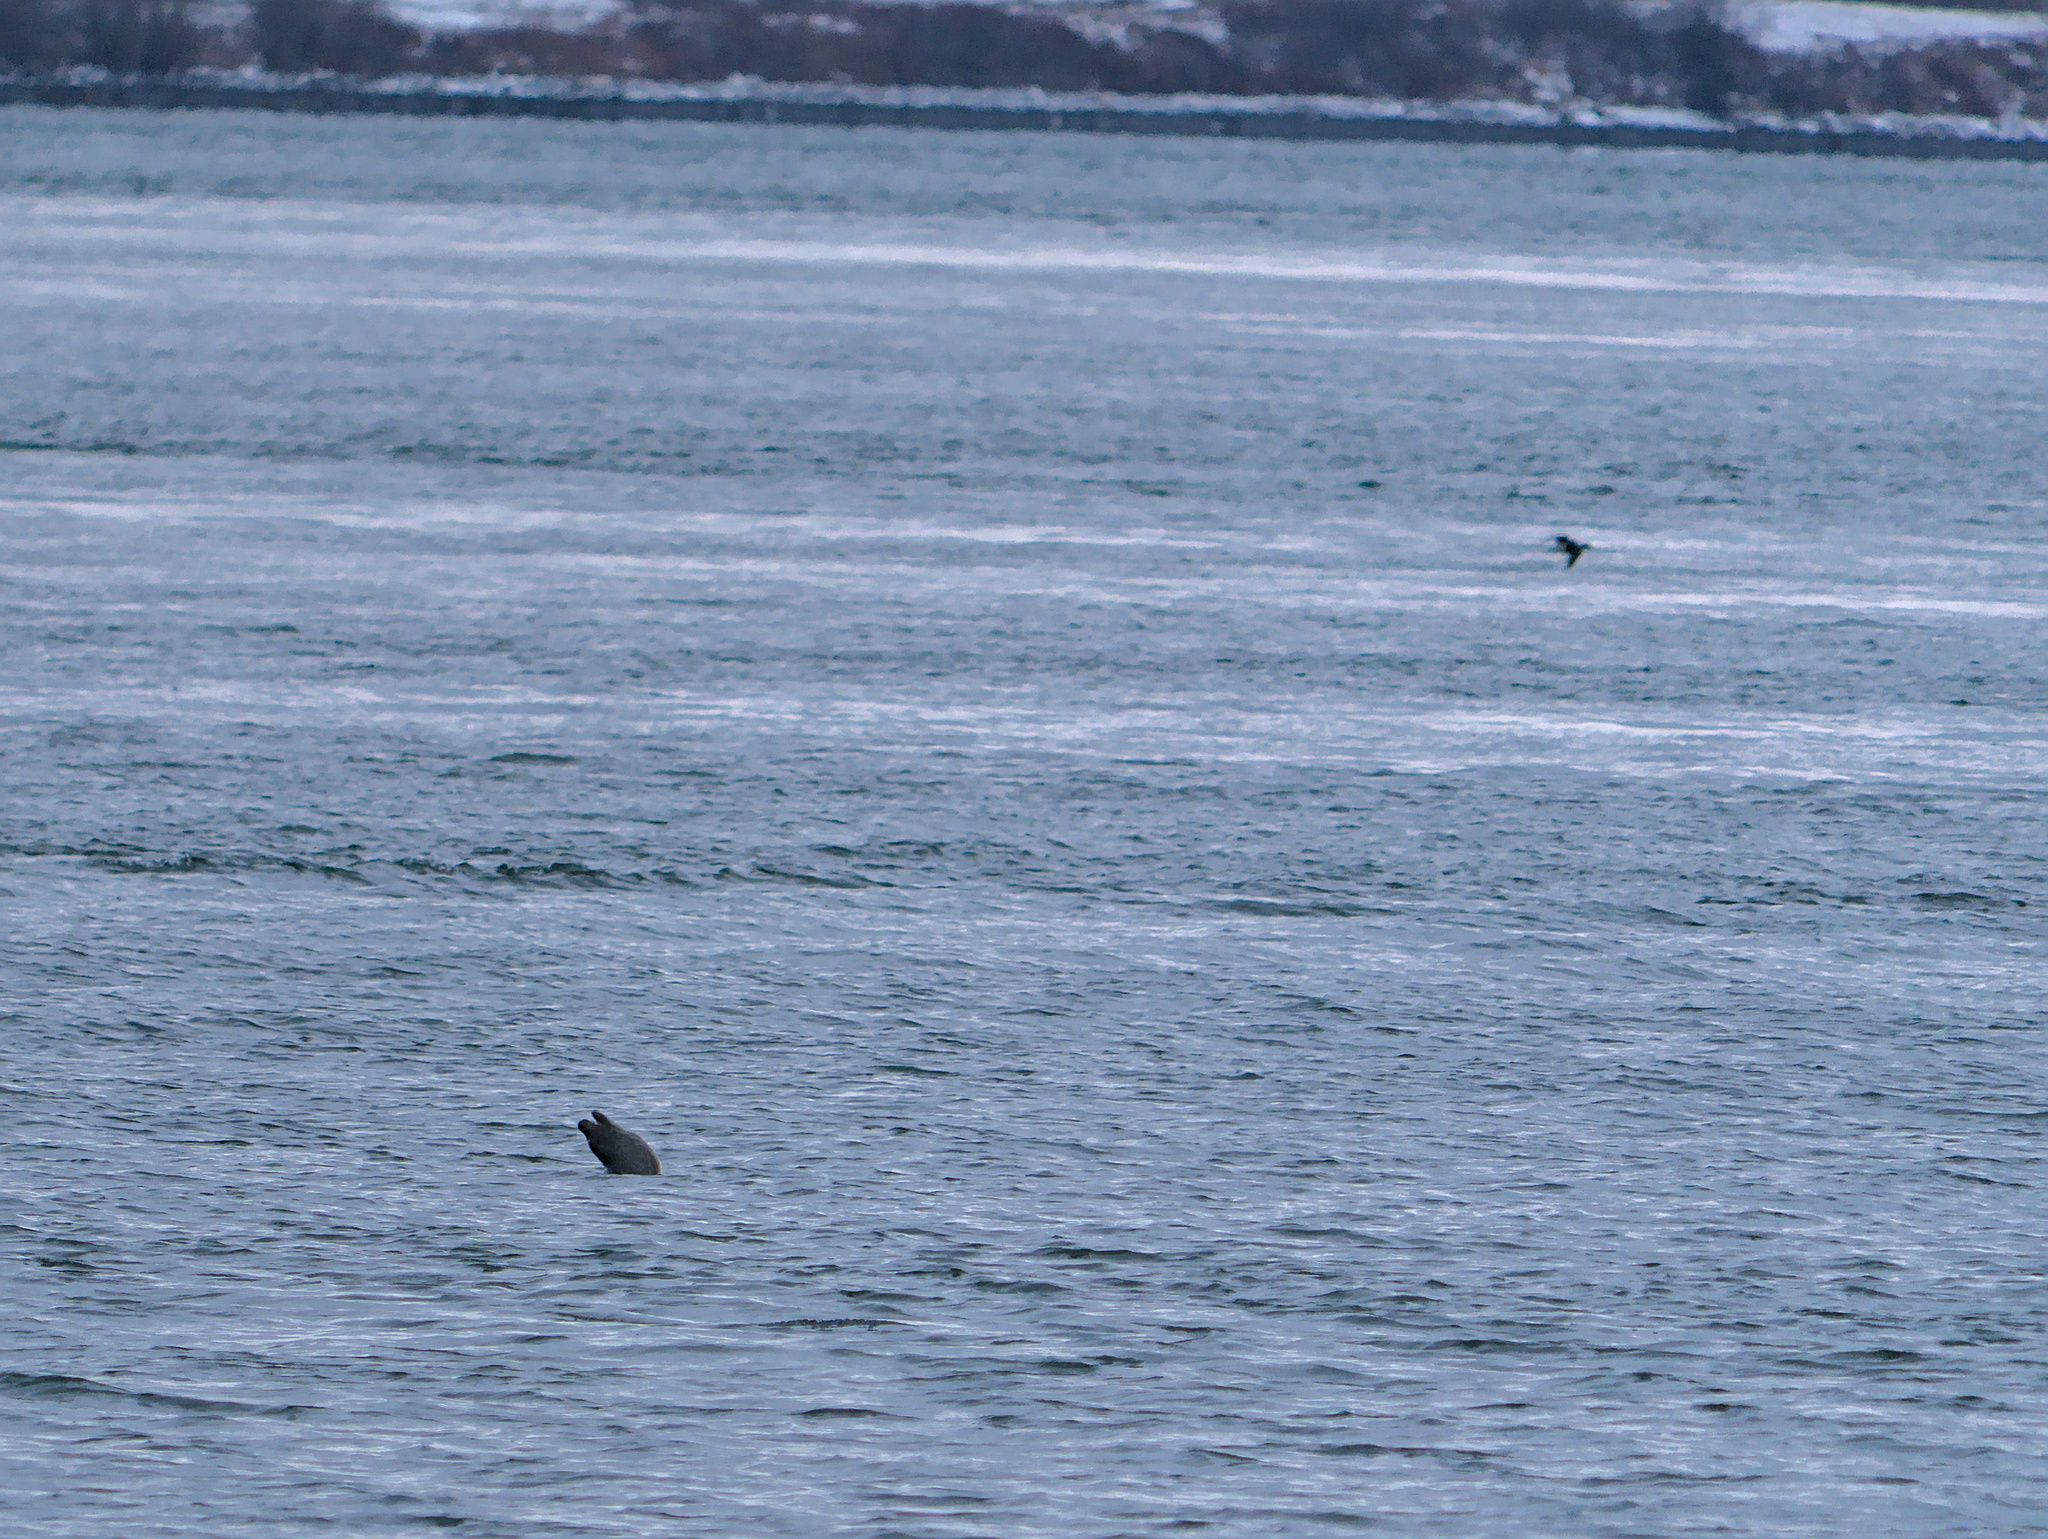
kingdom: Animalia
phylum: Chordata
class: Mammalia
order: Carnivora
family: Phocidae
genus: Phoca
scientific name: Phoca vitulina
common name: Harbor seal
